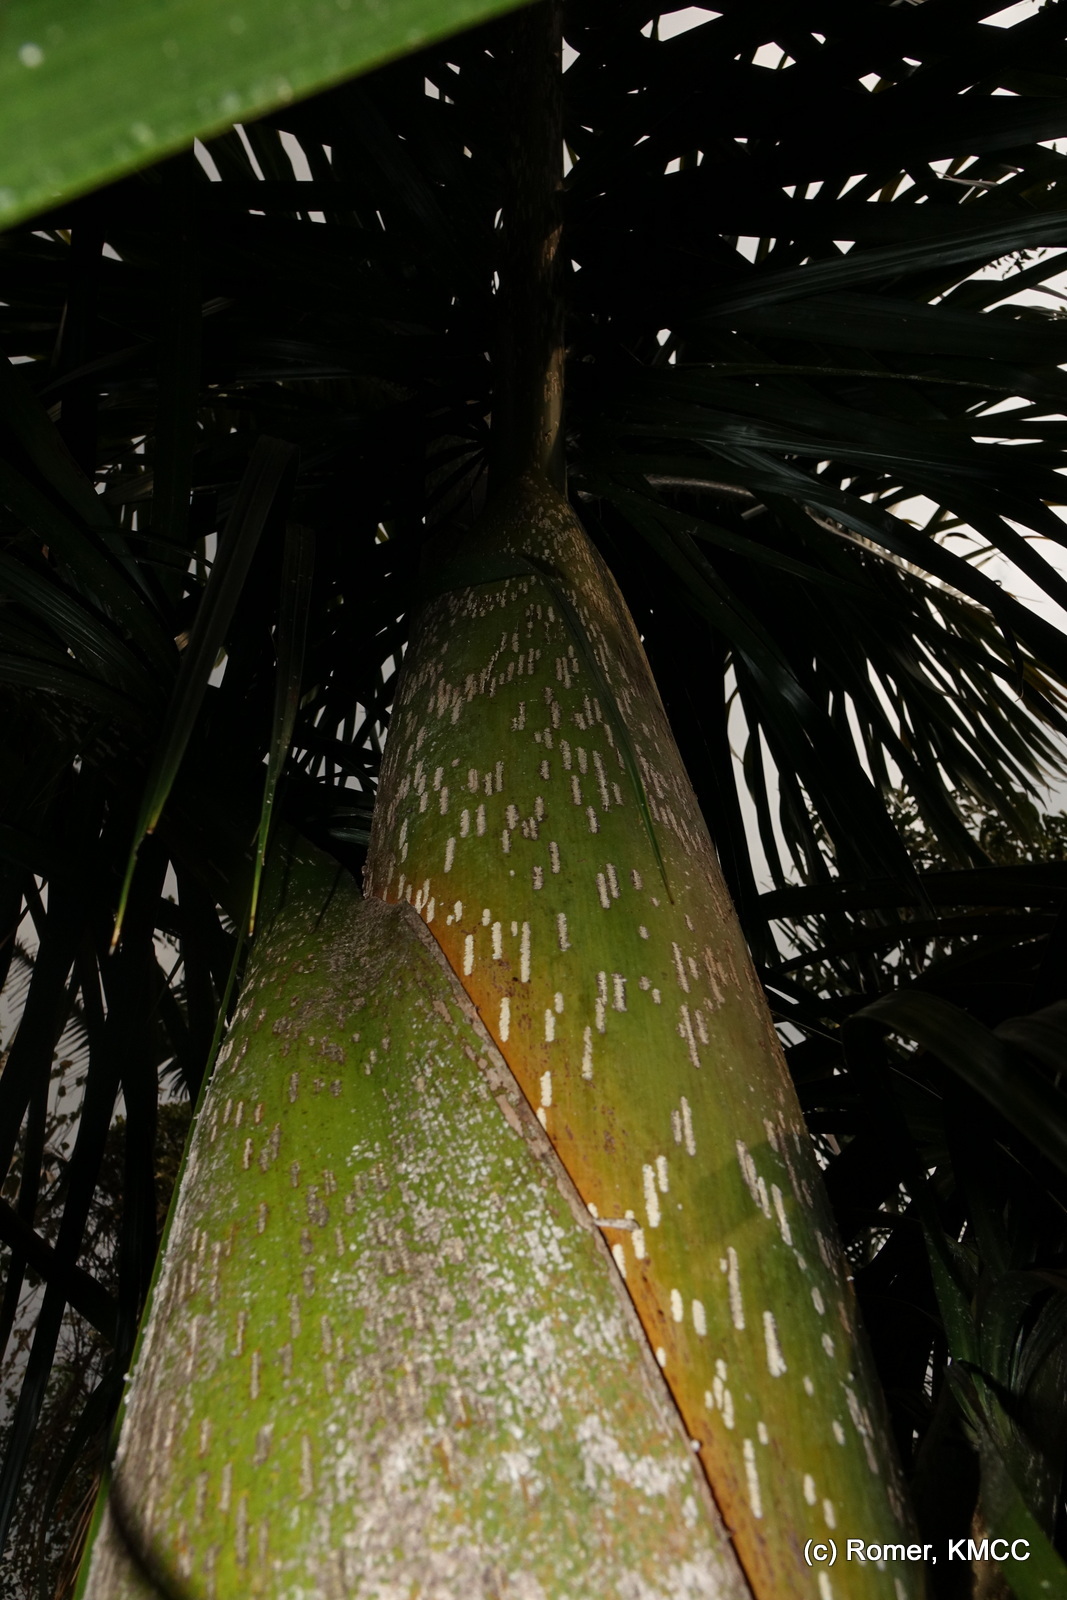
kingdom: Plantae
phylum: Tracheophyta
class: Liliopsida
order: Arecales
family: Arecaceae
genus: Dypsis
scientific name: Dypsis mananjarensis
